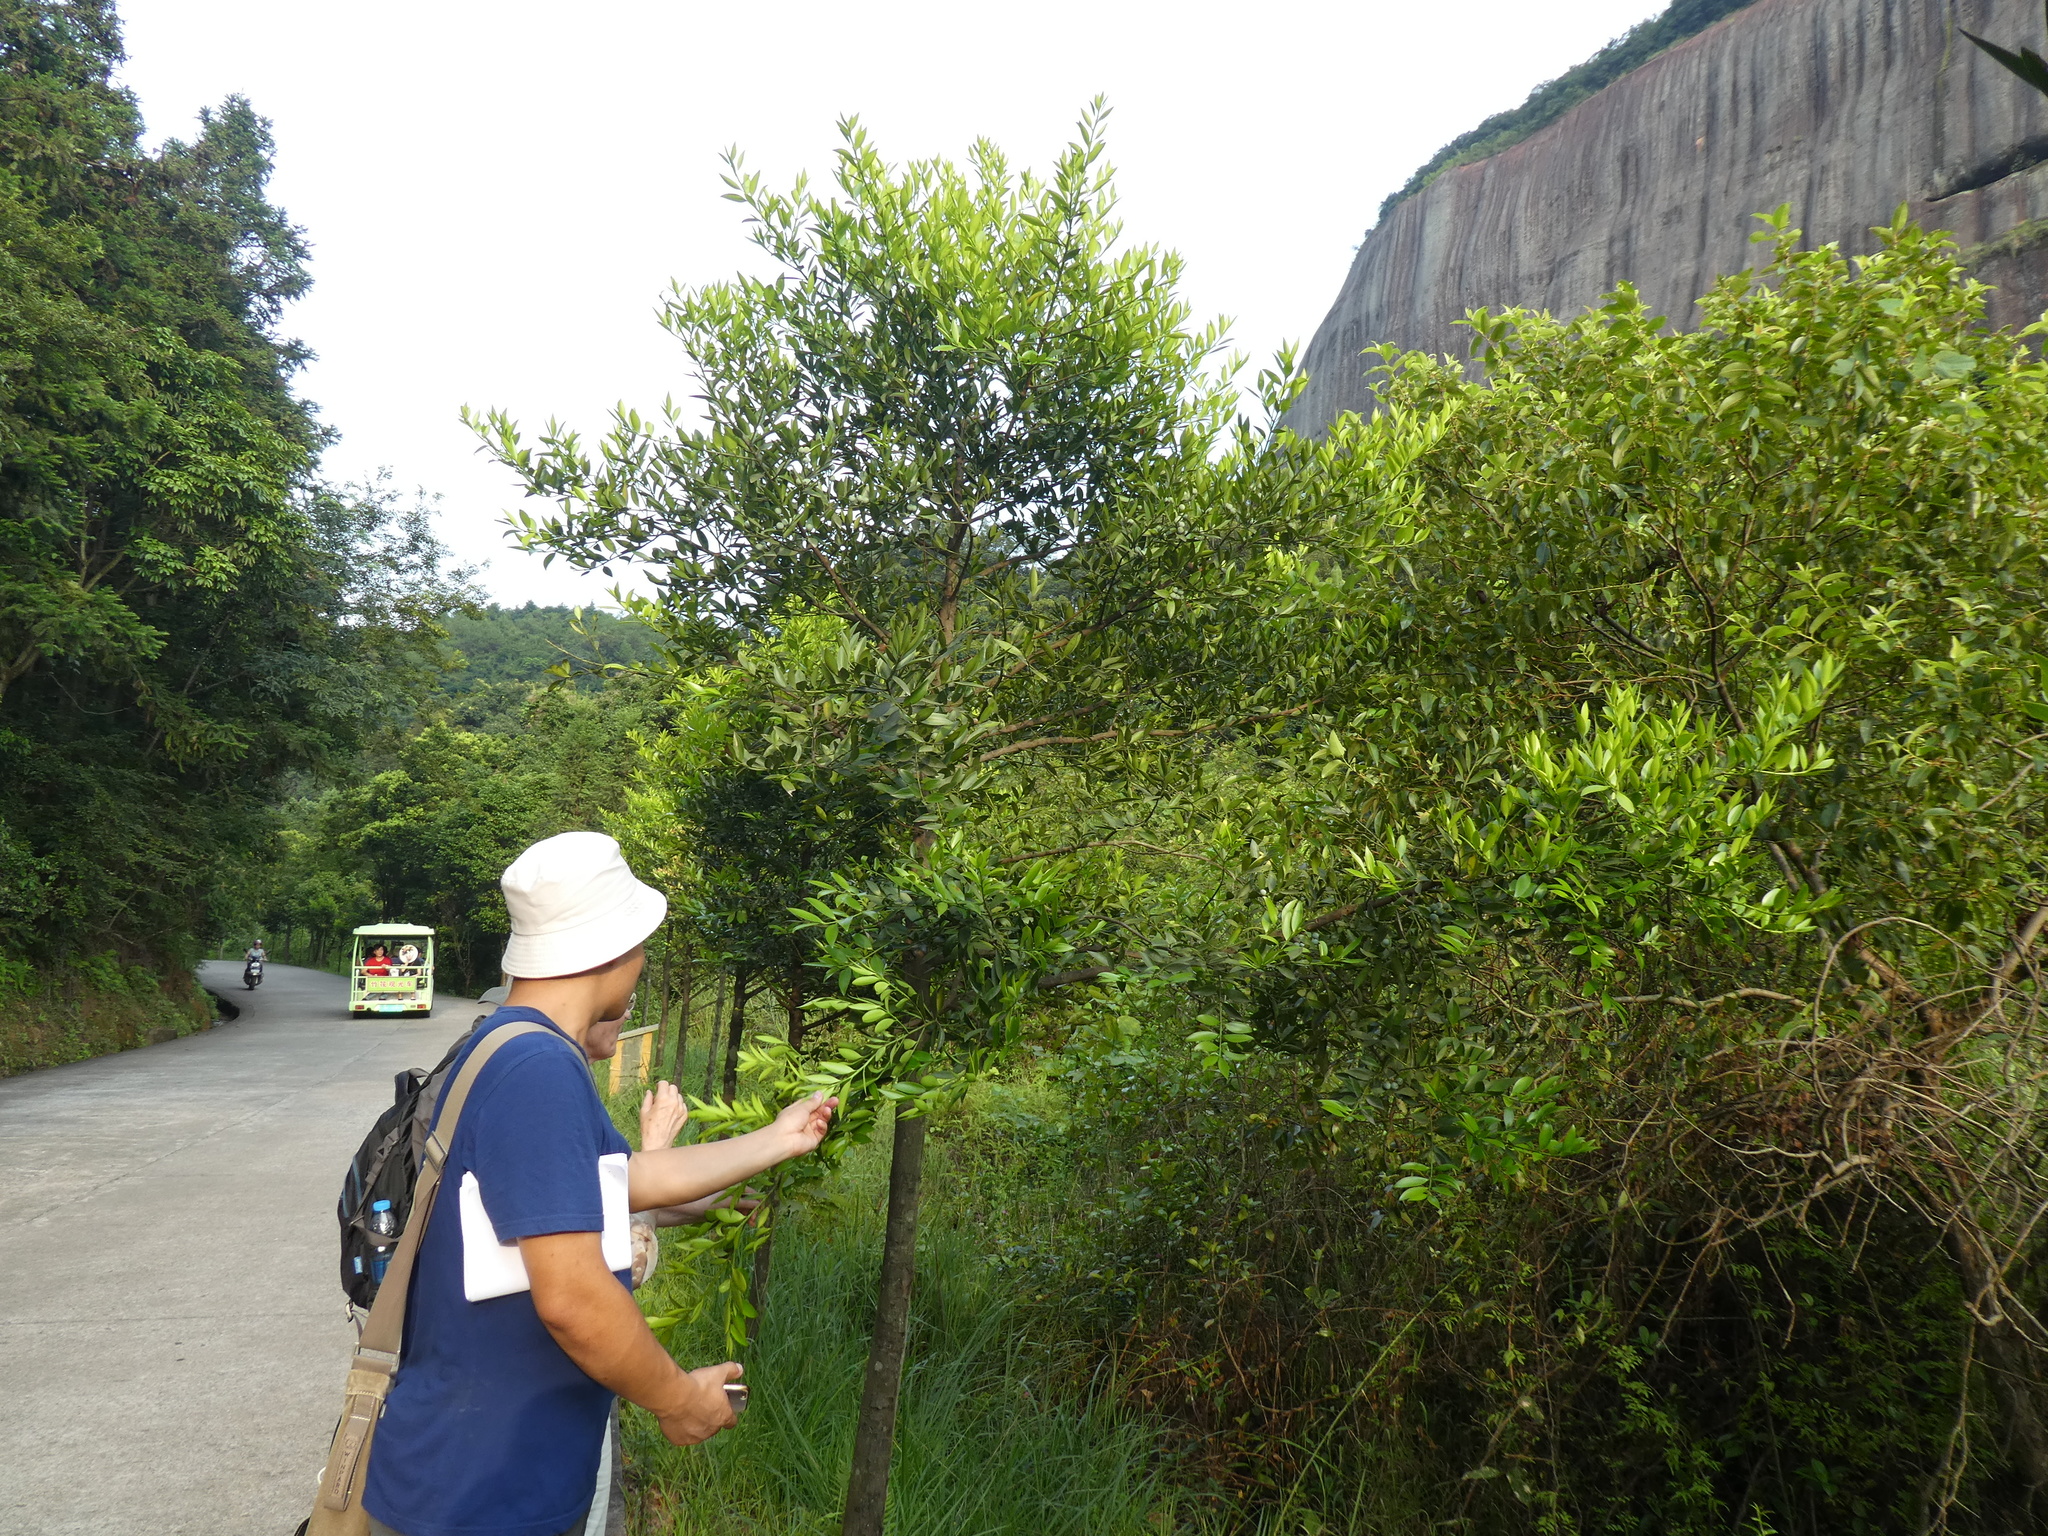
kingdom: Plantae
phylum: Tracheophyta
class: Pinopsida
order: Pinales
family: Podocarpaceae
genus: Nageia
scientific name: Nageia nagi
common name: Kaphal
